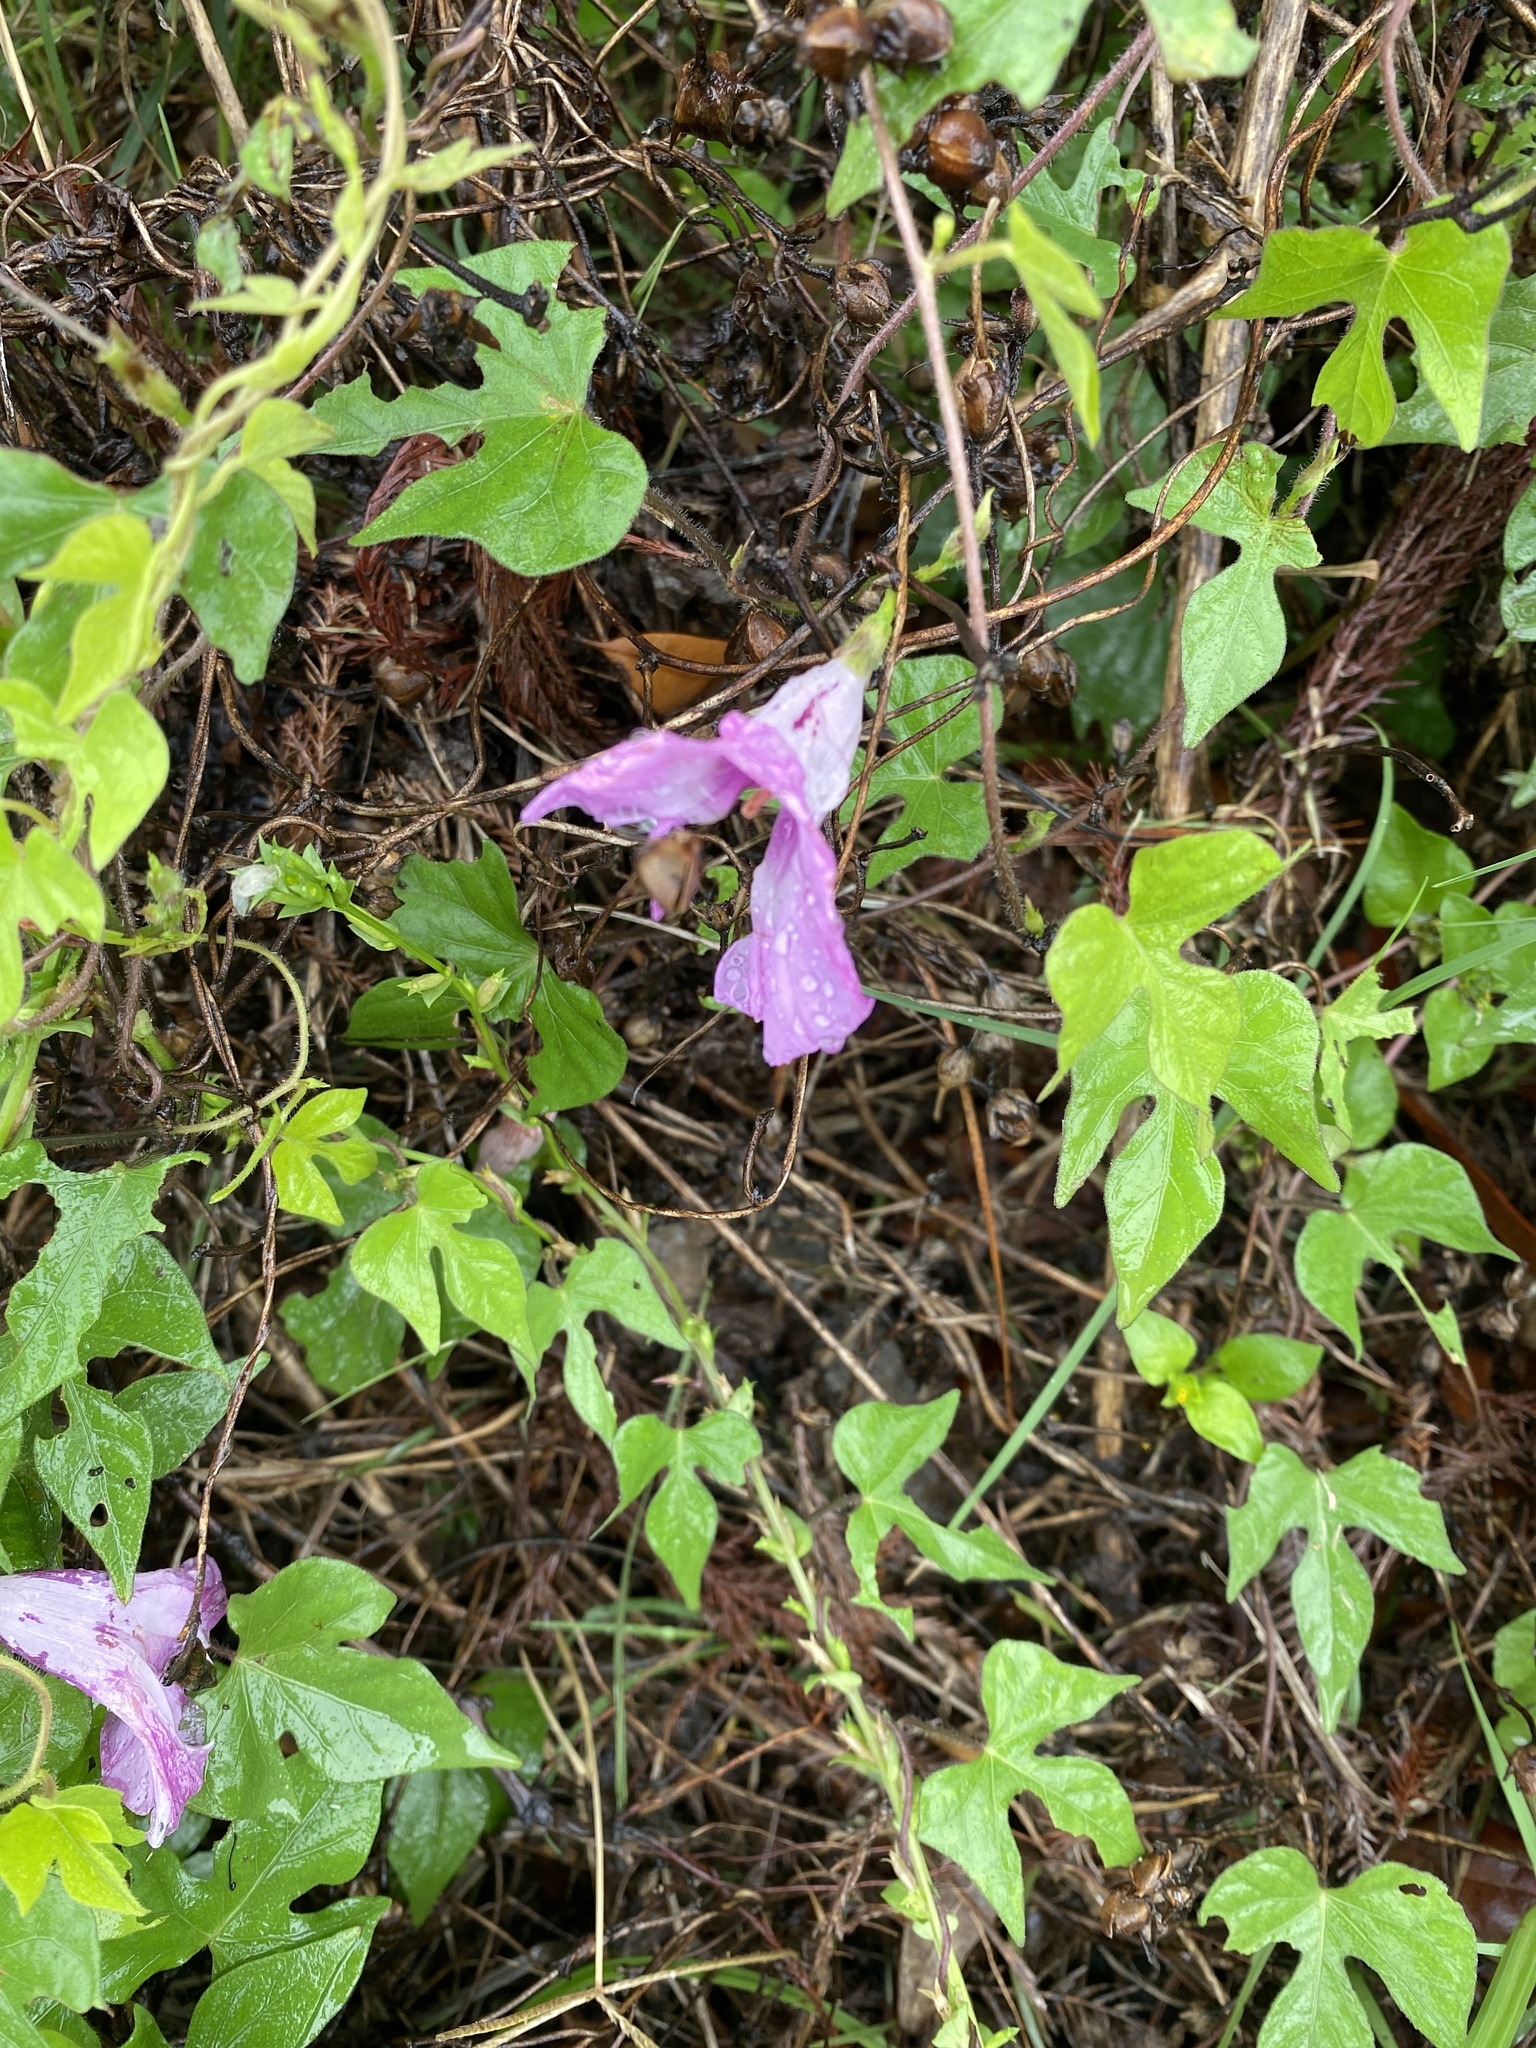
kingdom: Plantae
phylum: Tracheophyta
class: Magnoliopsida
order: Solanales
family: Convolvulaceae
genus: Ipomoea
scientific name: Ipomoea cordatotriloba
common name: Cotton morning glory
